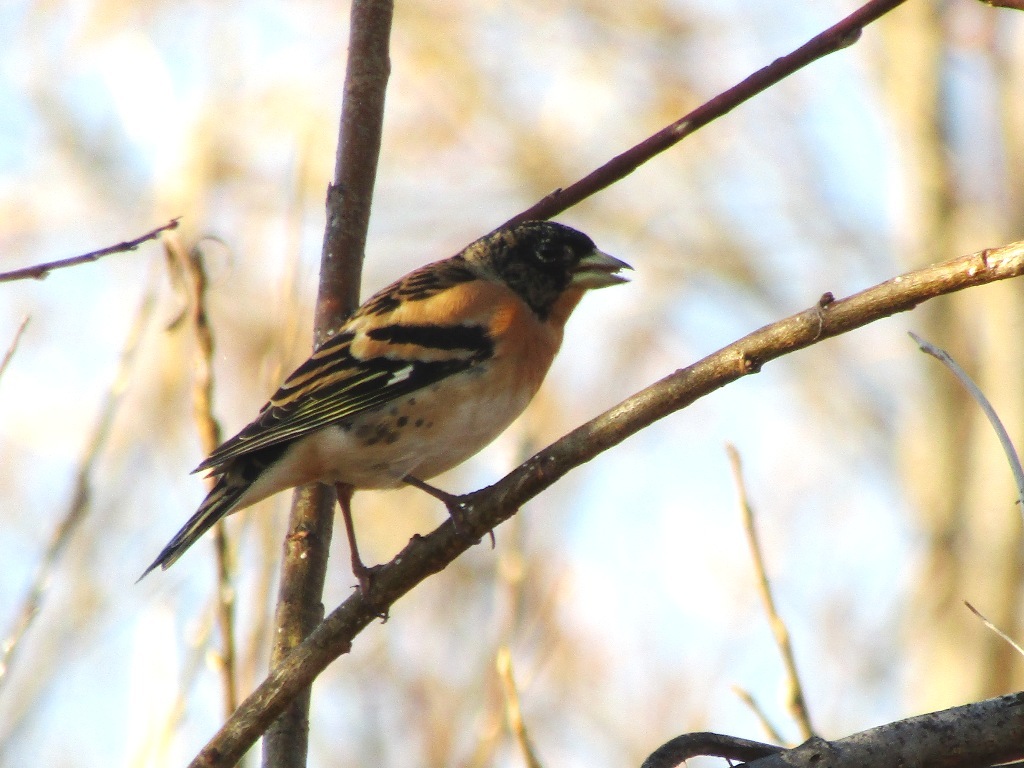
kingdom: Animalia
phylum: Chordata
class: Aves
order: Passeriformes
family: Fringillidae
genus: Fringilla
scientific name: Fringilla montifringilla
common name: Brambling
